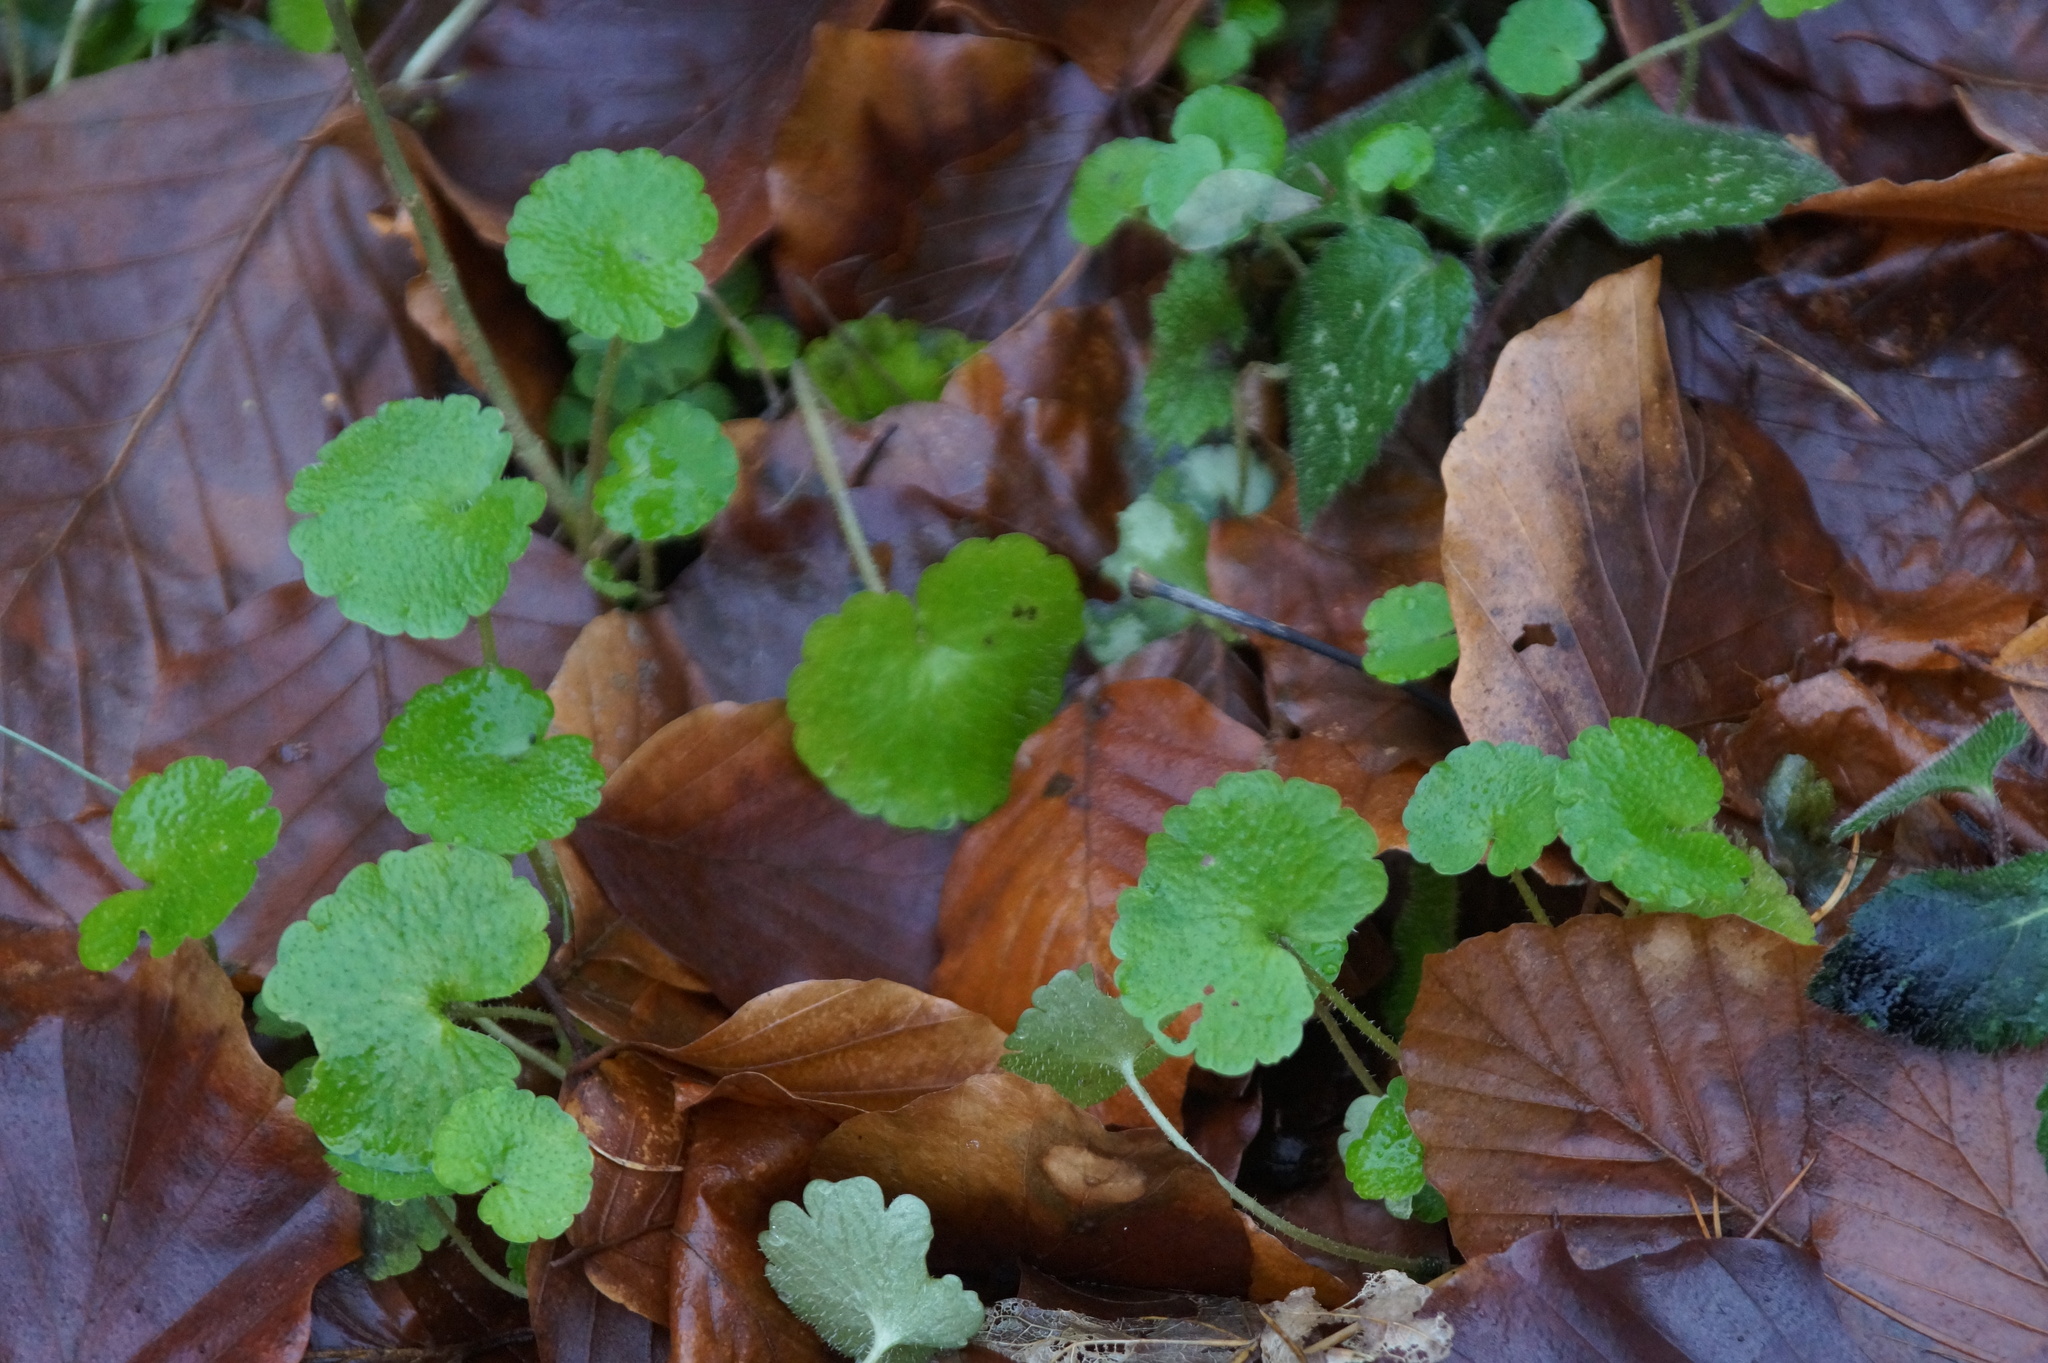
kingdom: Plantae
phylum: Tracheophyta
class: Magnoliopsida
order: Saxifragales
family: Saxifragaceae
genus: Chrysosplenium
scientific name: Chrysosplenium alternifolium
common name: Alternate-leaved golden-saxifrage
